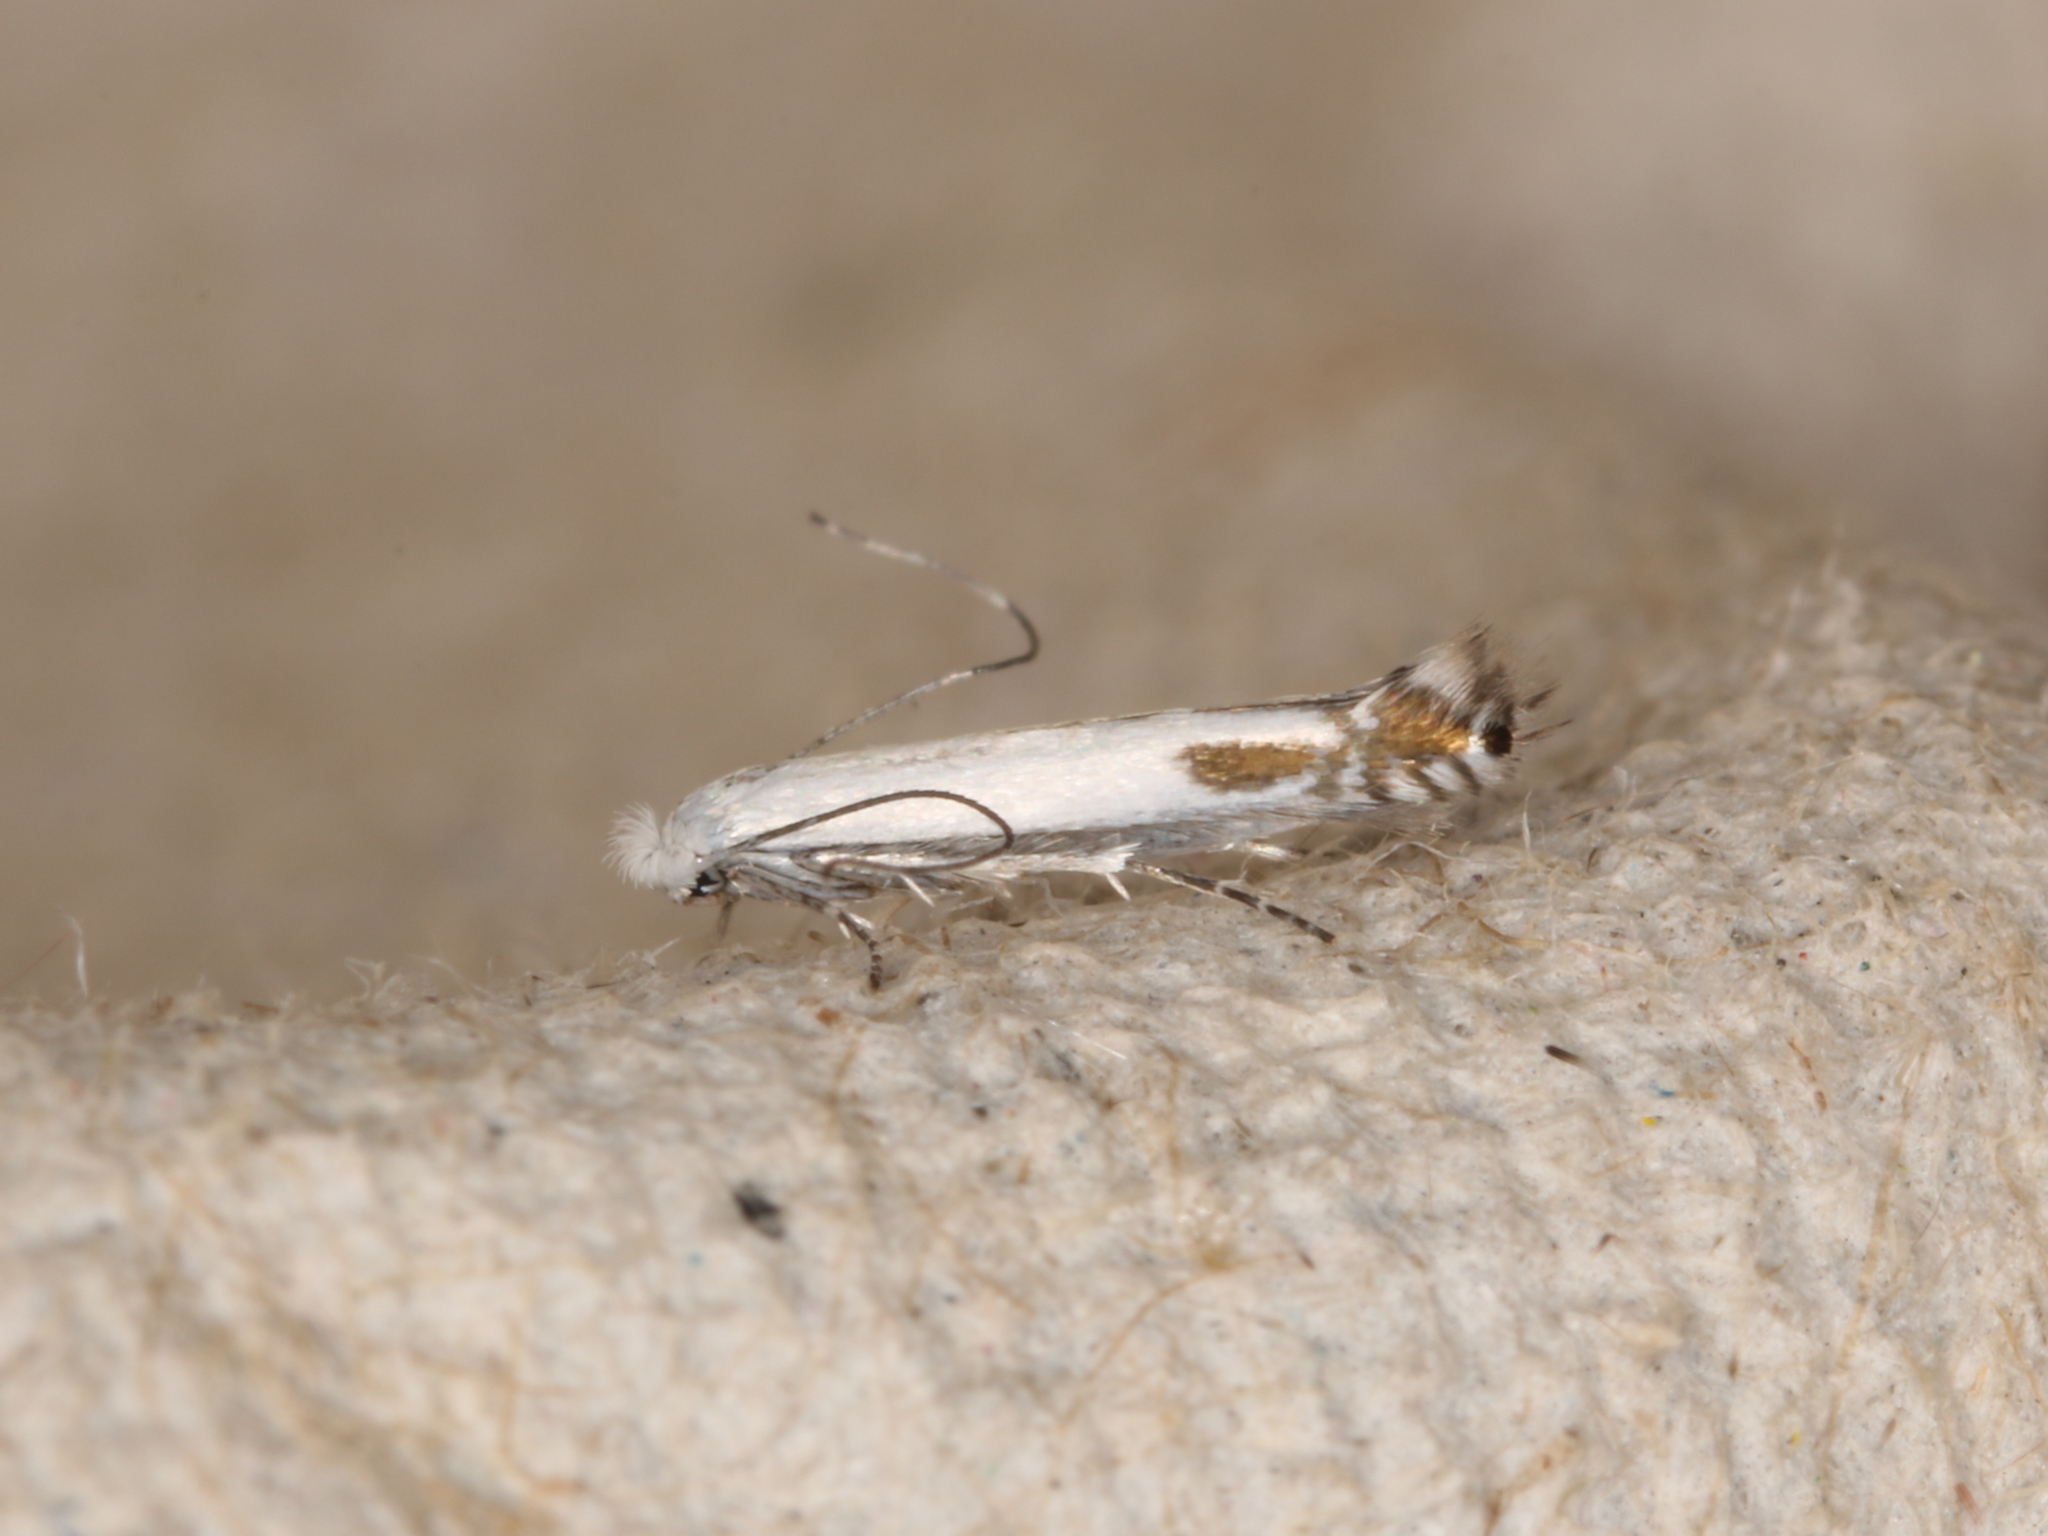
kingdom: Animalia
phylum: Arthropoda
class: Insecta
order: Lepidoptera
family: Lyonetiidae
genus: Lyonetia
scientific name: Lyonetia clerkella
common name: Apple leaf miner
